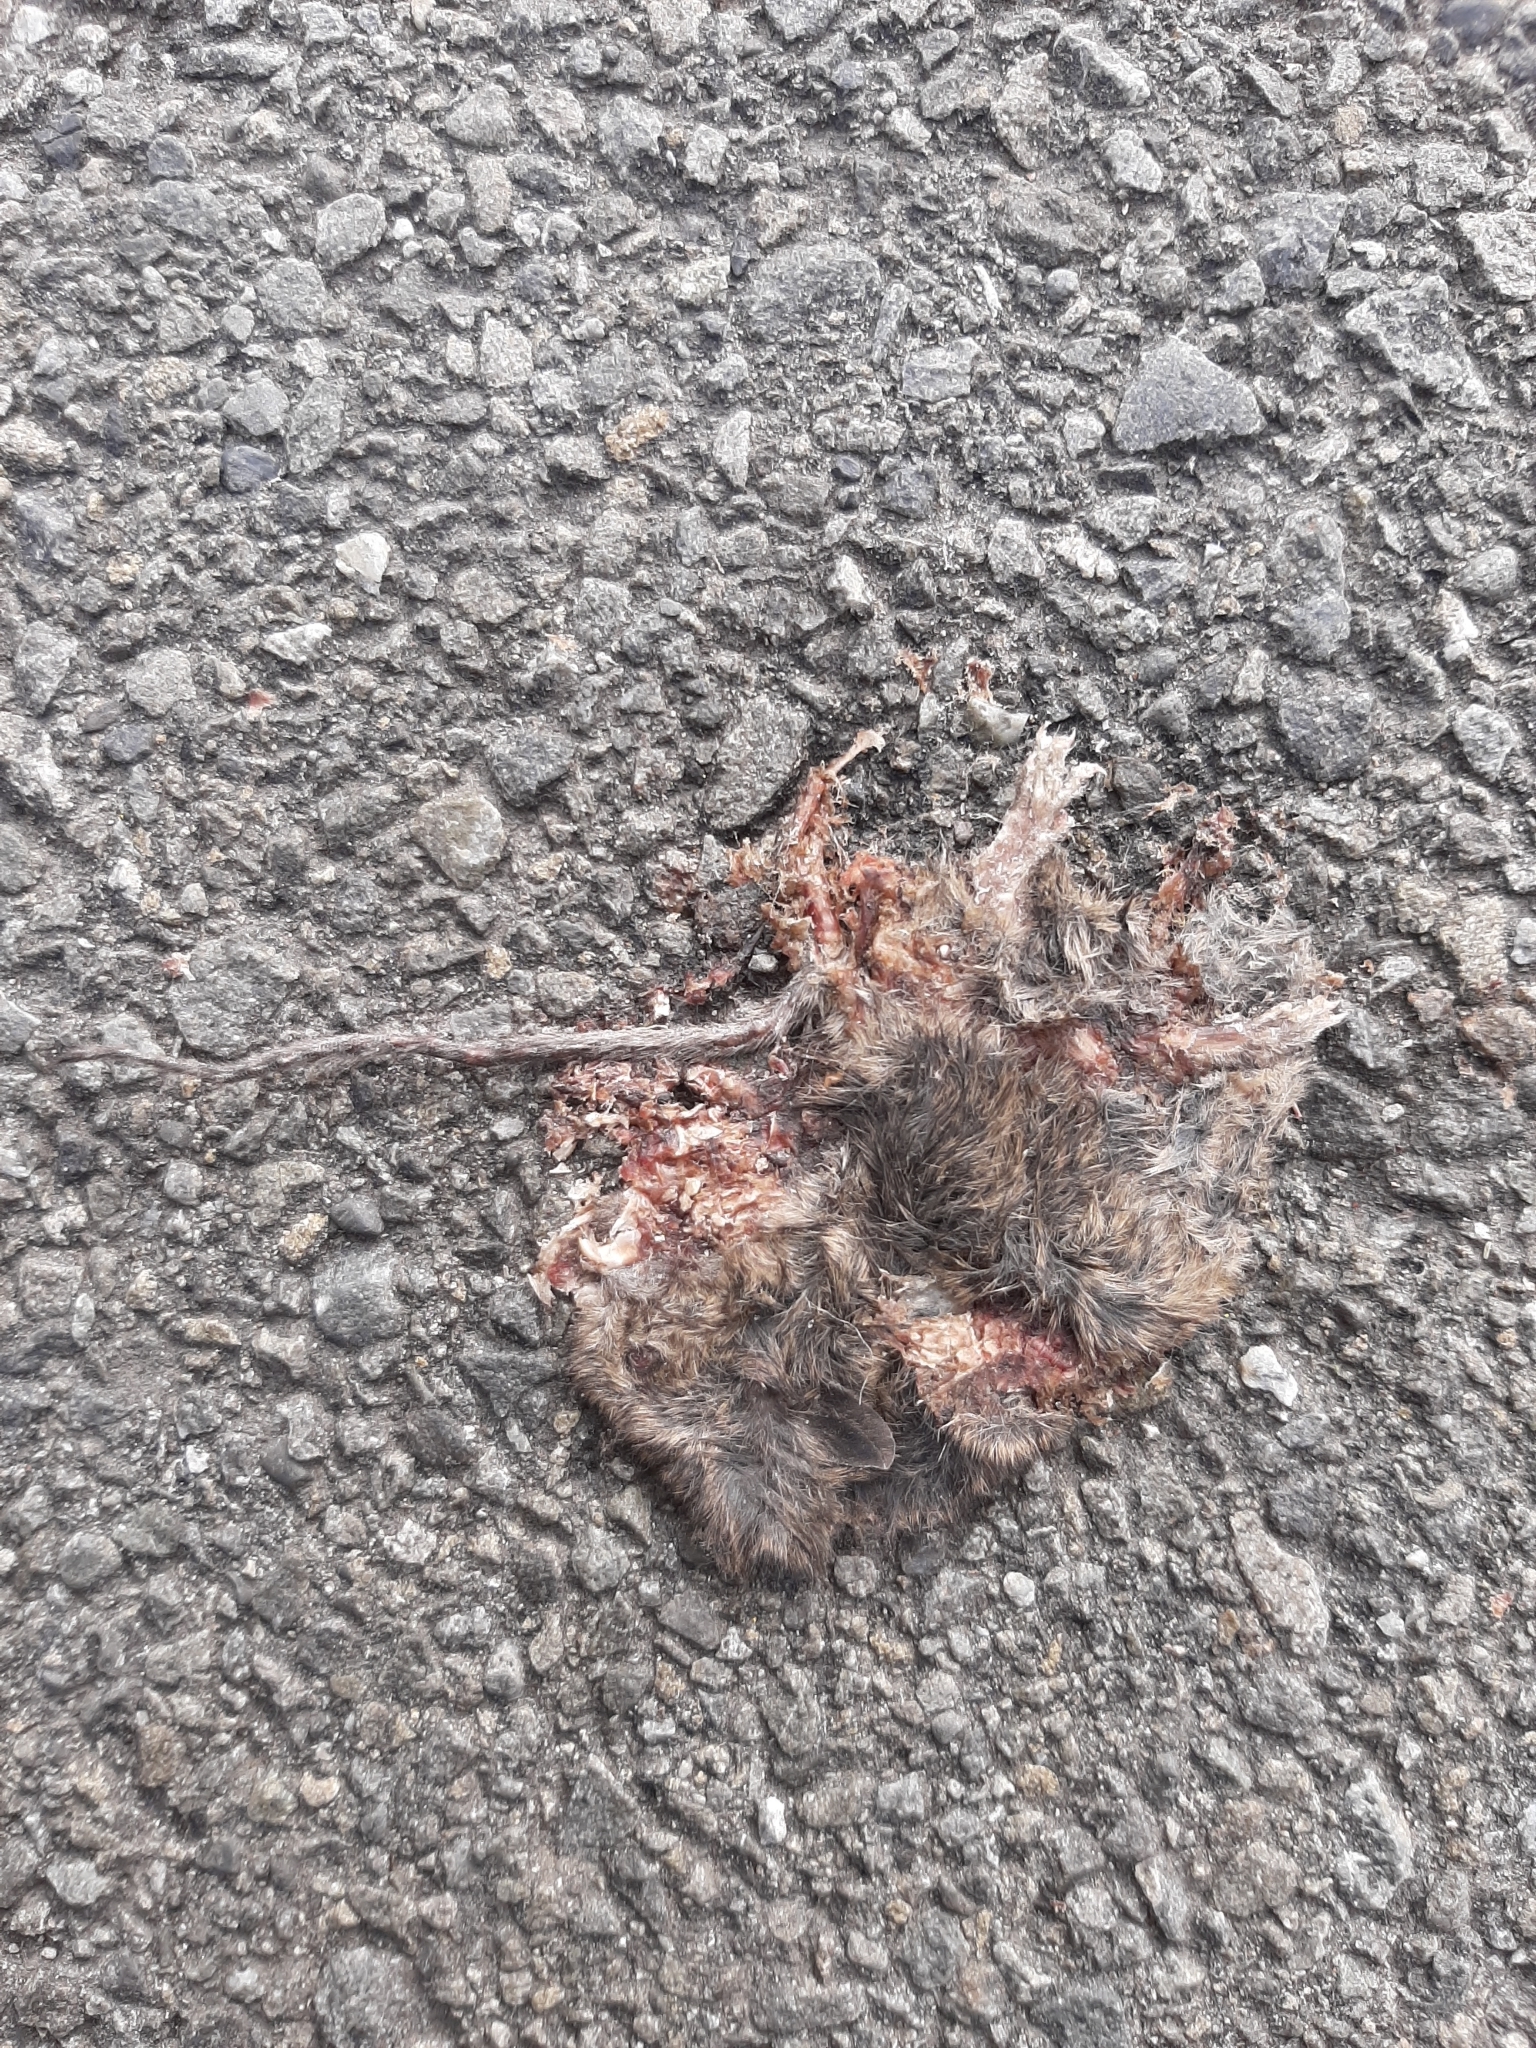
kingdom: Animalia
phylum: Chordata
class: Mammalia
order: Rodentia
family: Muridae
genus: Mus
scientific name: Mus musculus
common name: House mouse
